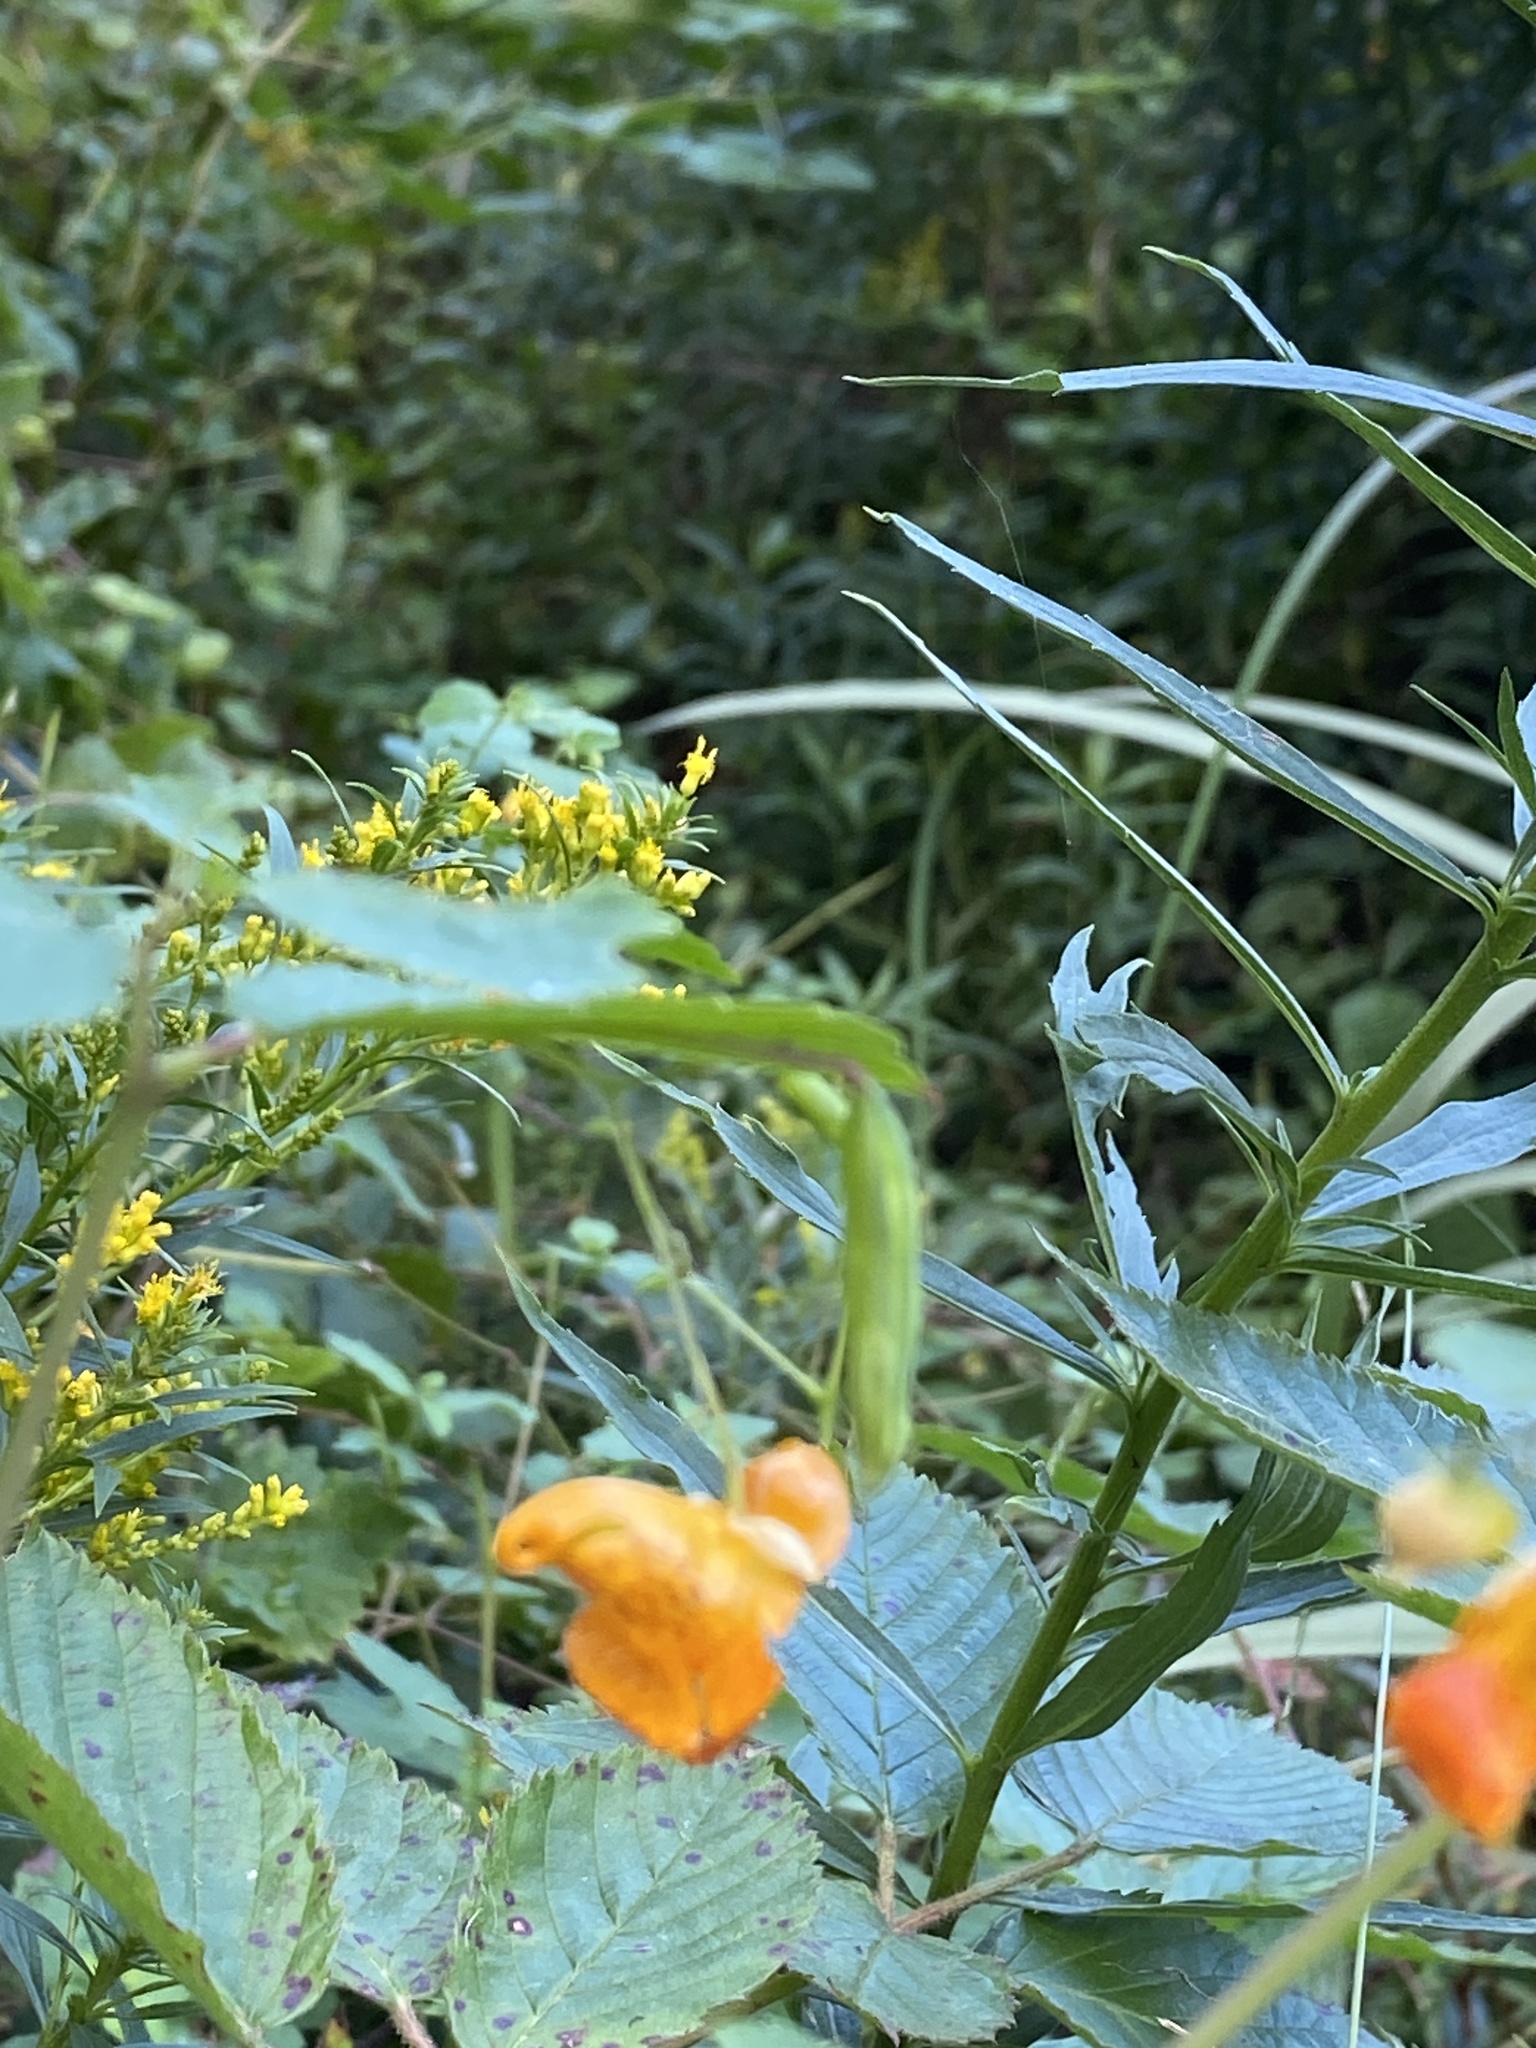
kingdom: Plantae
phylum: Tracheophyta
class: Magnoliopsida
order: Ericales
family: Balsaminaceae
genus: Impatiens
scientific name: Impatiens capensis
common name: Orange balsam
